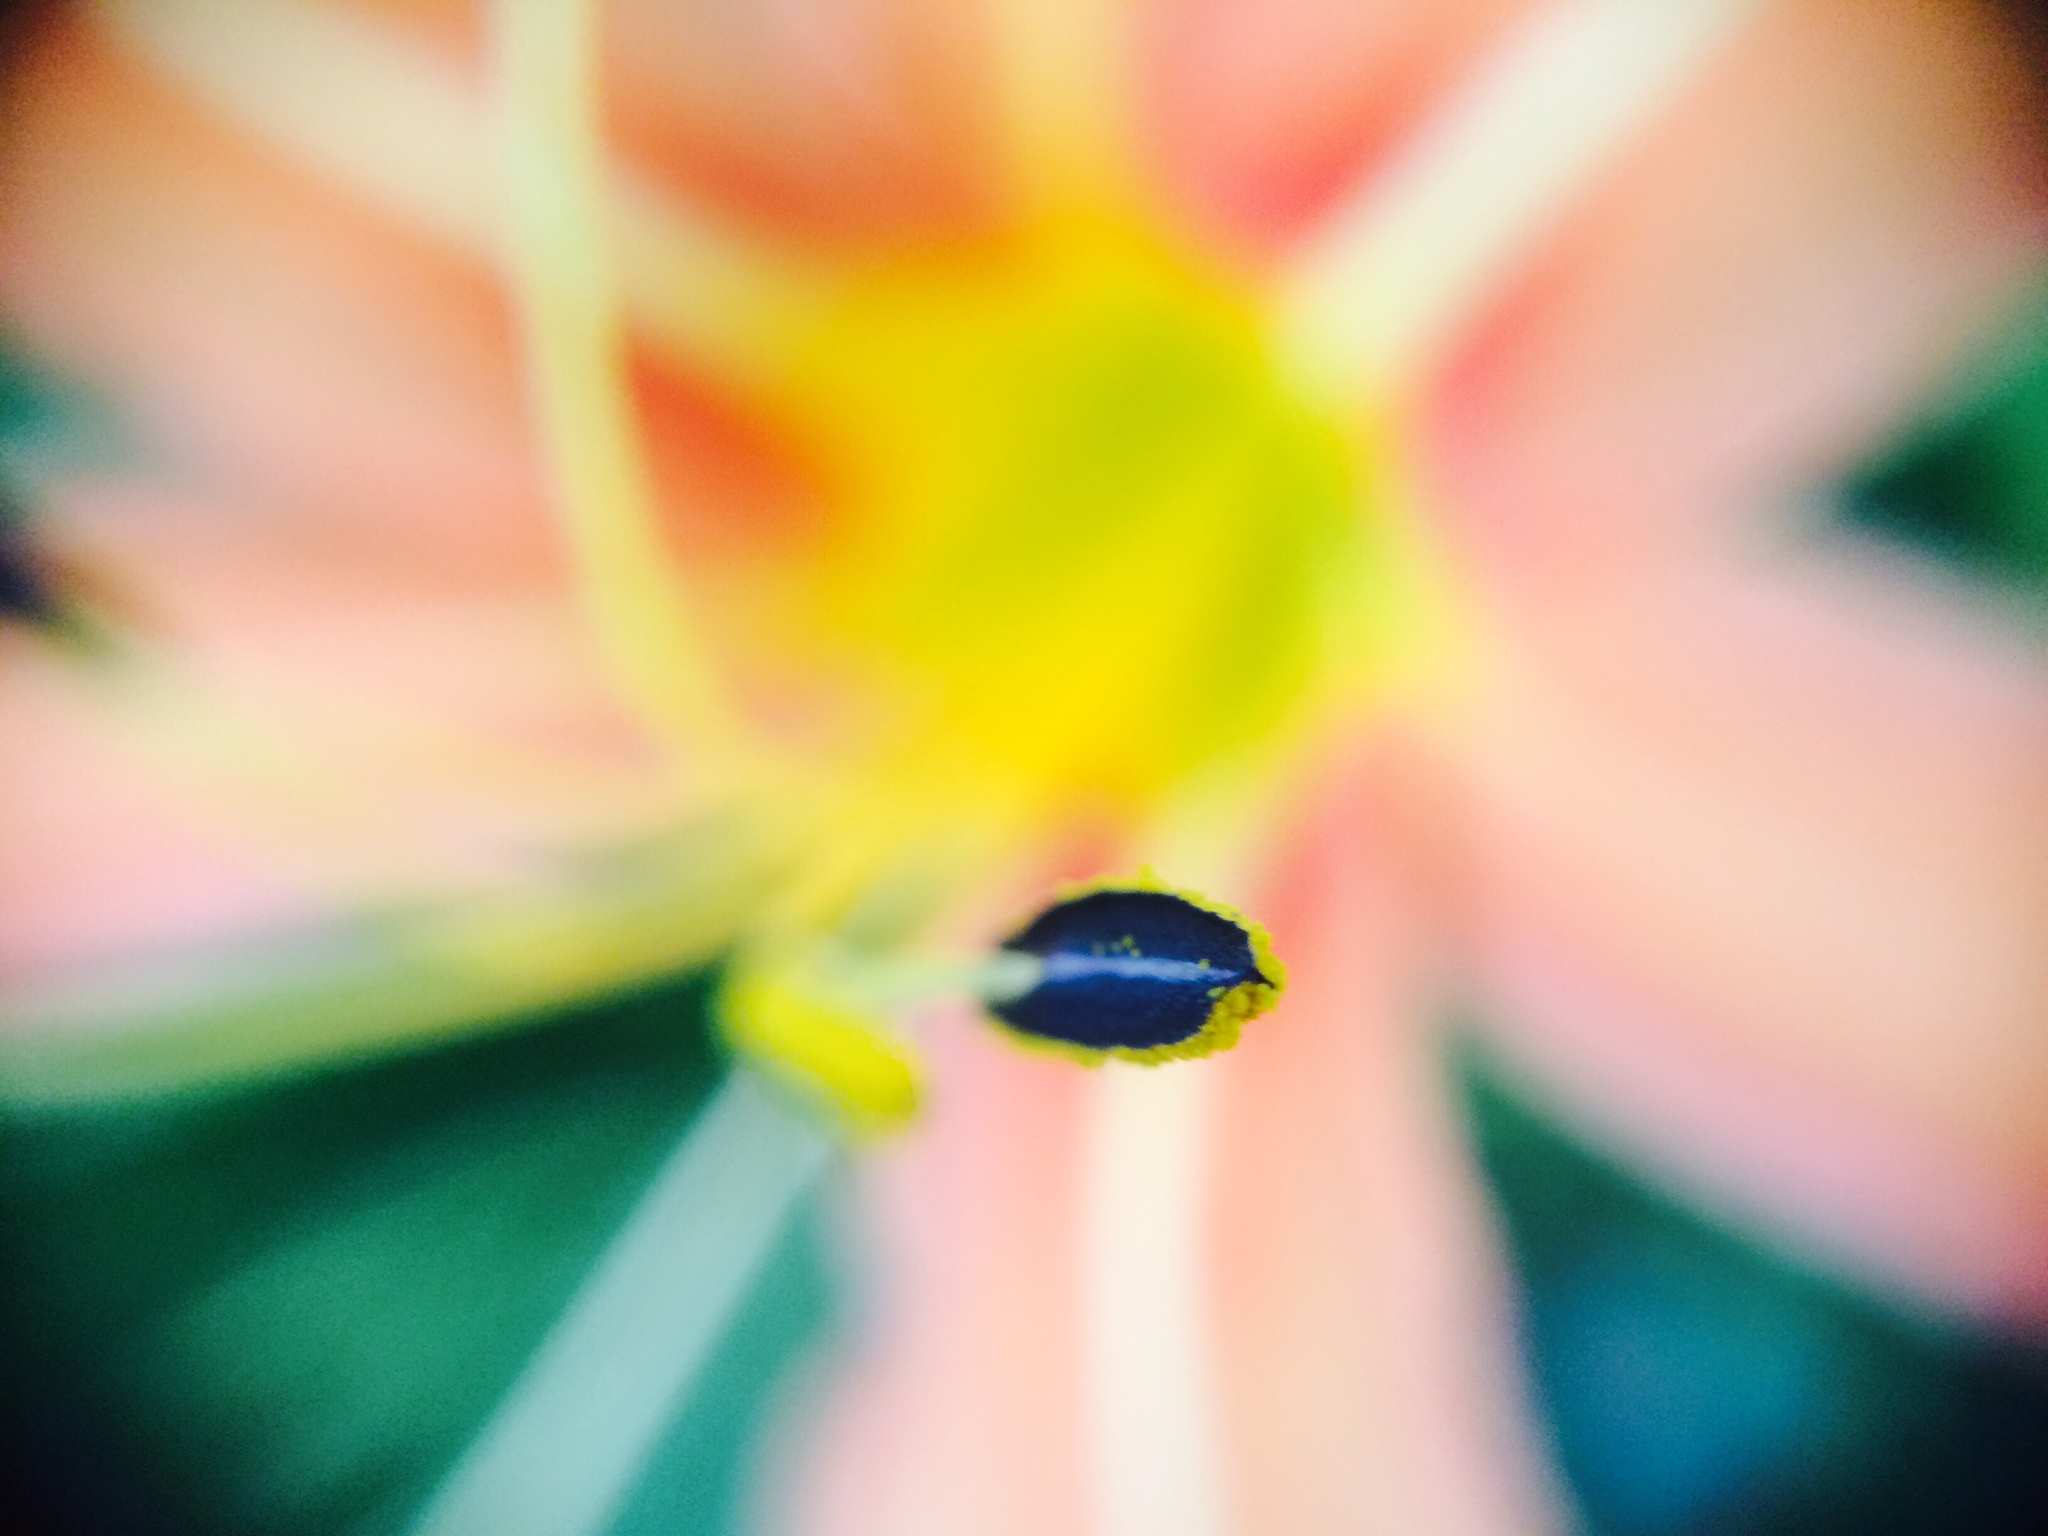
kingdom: Plantae
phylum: Tracheophyta
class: Liliopsida
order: Asparagales
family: Asphodelaceae
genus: Hemerocallis
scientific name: Hemerocallis fulva
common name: Orange day-lily
